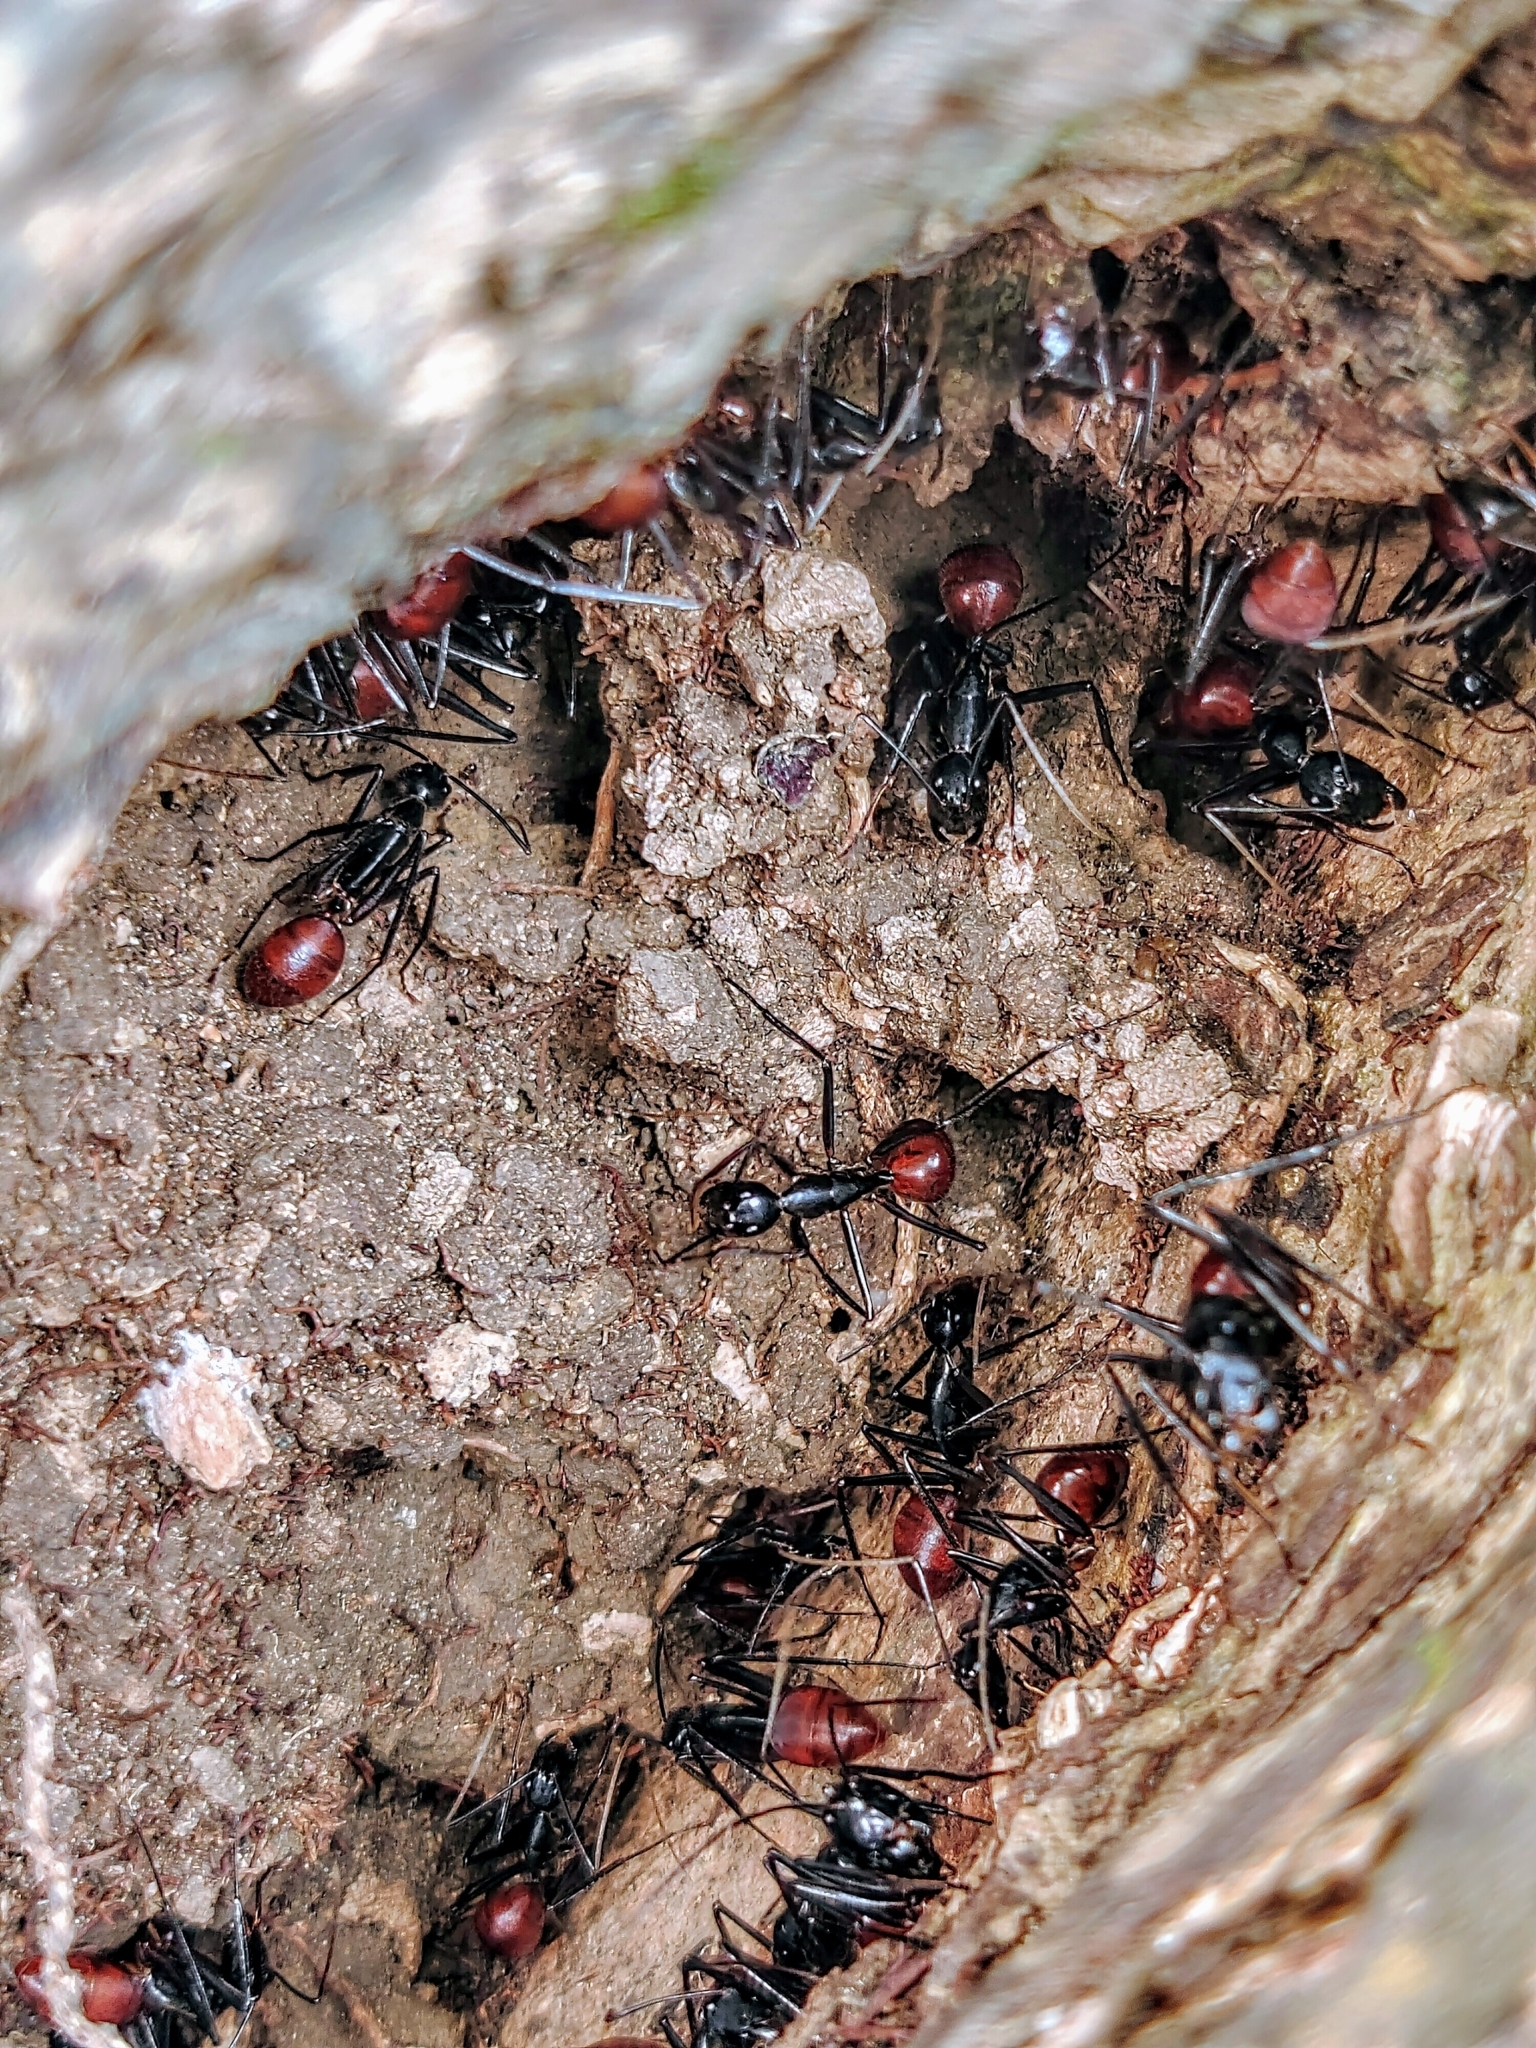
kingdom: Animalia
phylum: Arthropoda
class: Insecta
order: Hymenoptera
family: Formicidae
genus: Dinomyrmex
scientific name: Dinomyrmex
